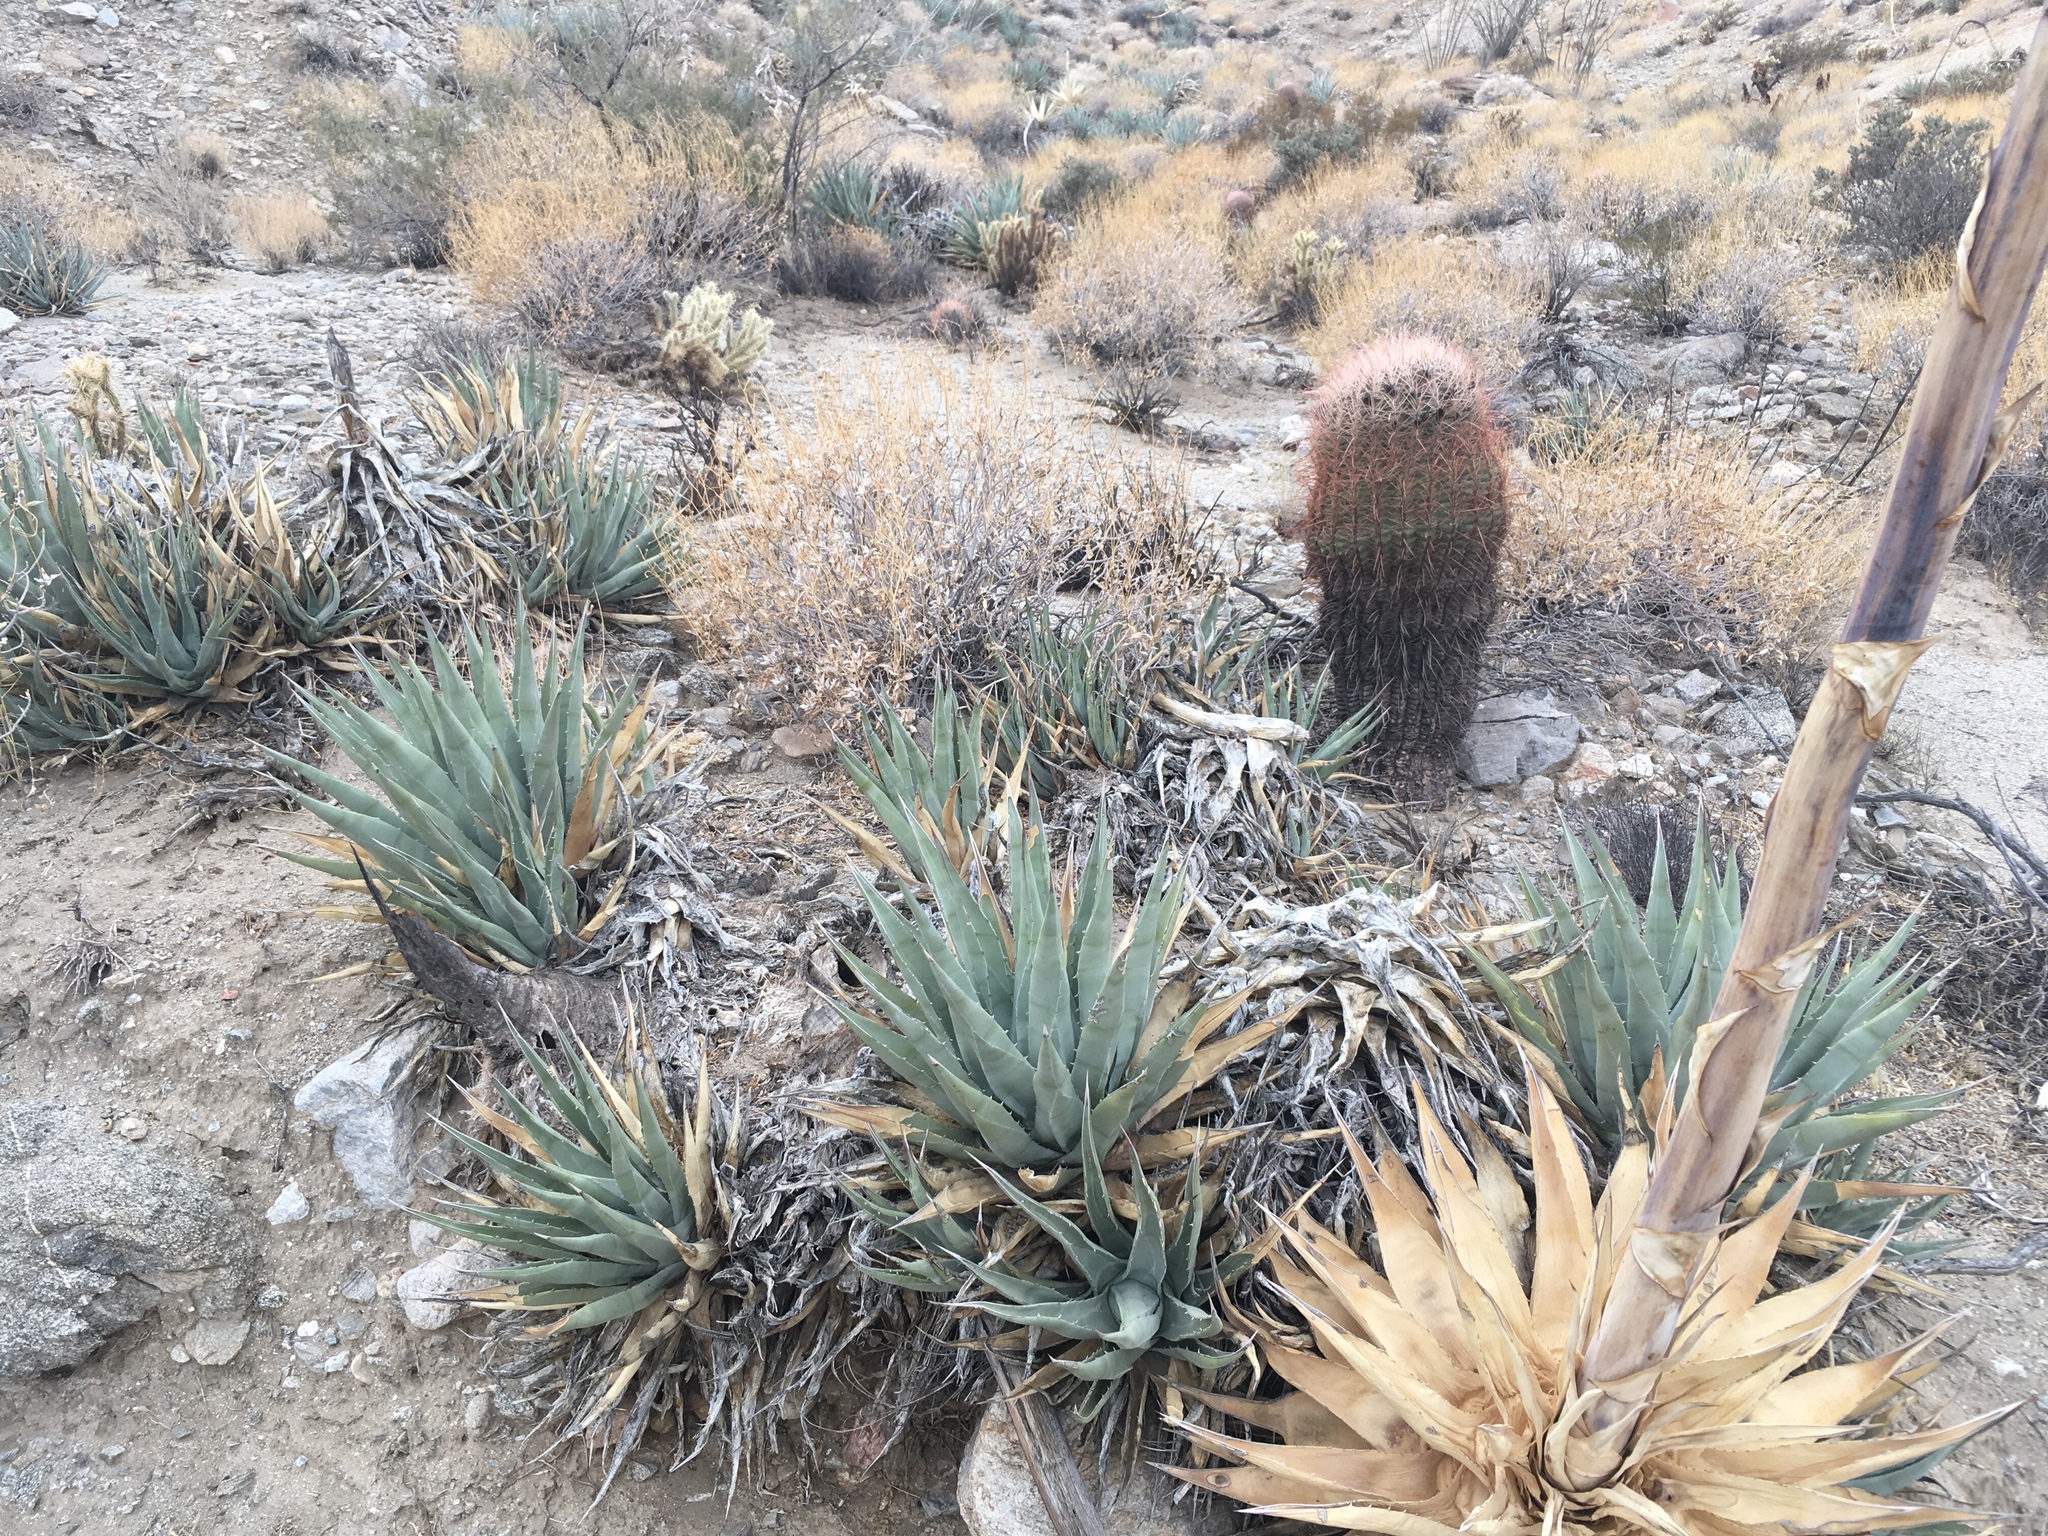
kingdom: Plantae
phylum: Tracheophyta
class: Liliopsida
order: Asparagales
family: Asparagaceae
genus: Agave
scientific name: Agave deserti
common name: Desert agave
